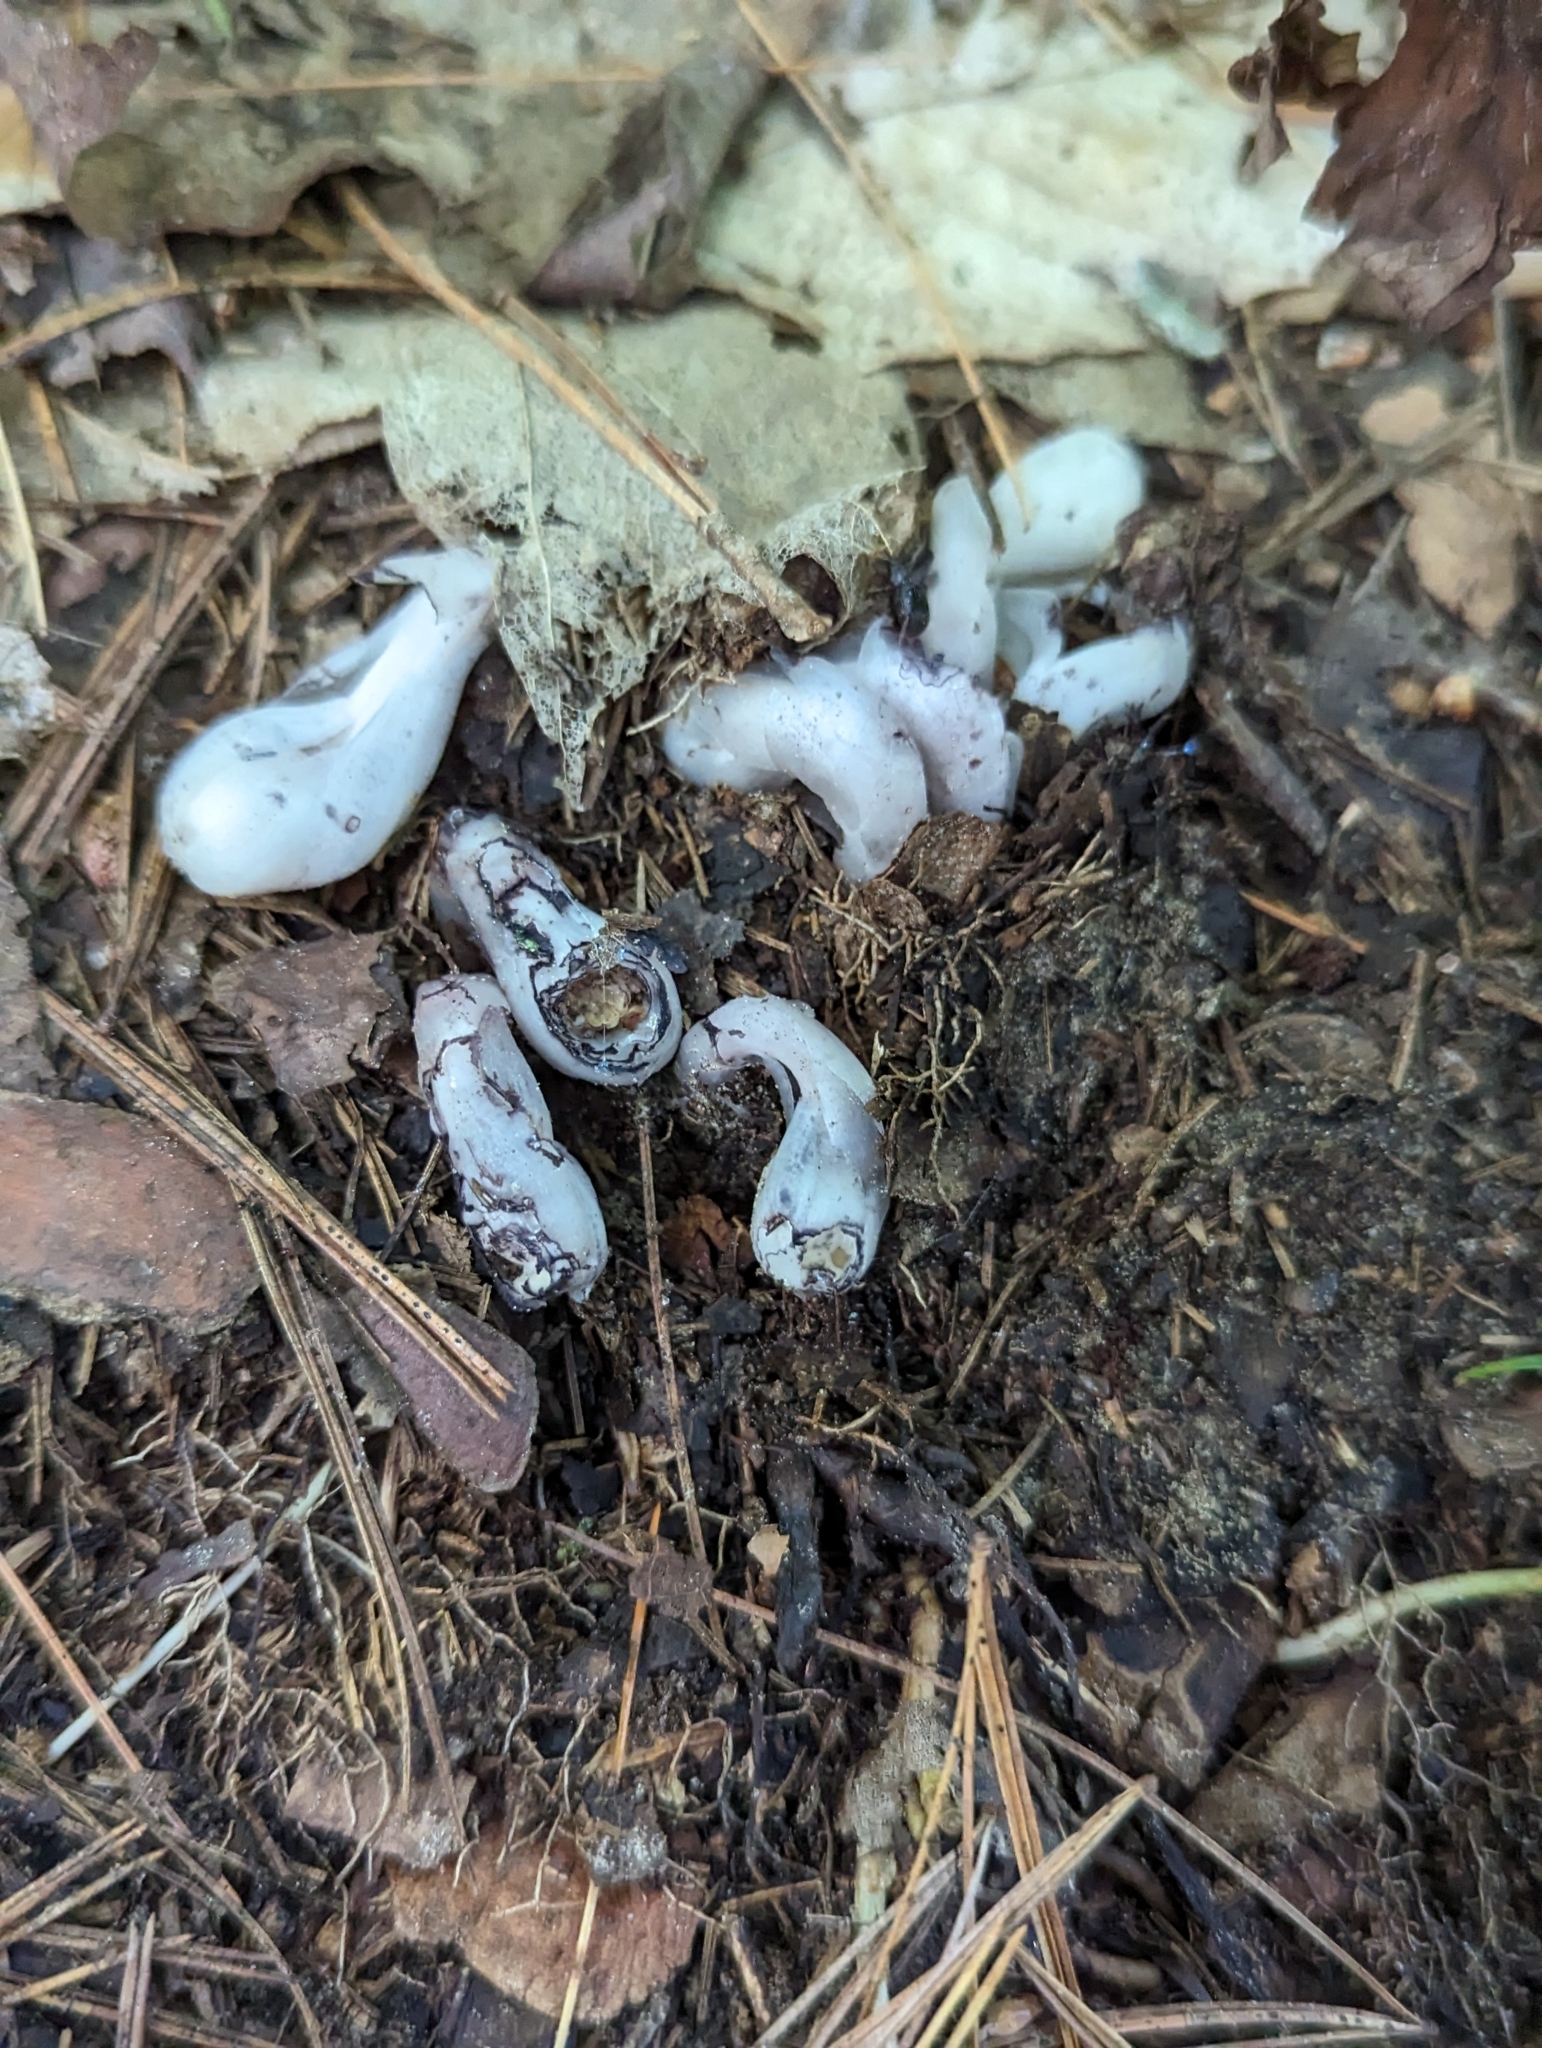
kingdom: Plantae
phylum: Tracheophyta
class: Magnoliopsida
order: Ericales
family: Ericaceae
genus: Monotropa
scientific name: Monotropa uniflora
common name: Convulsion root
